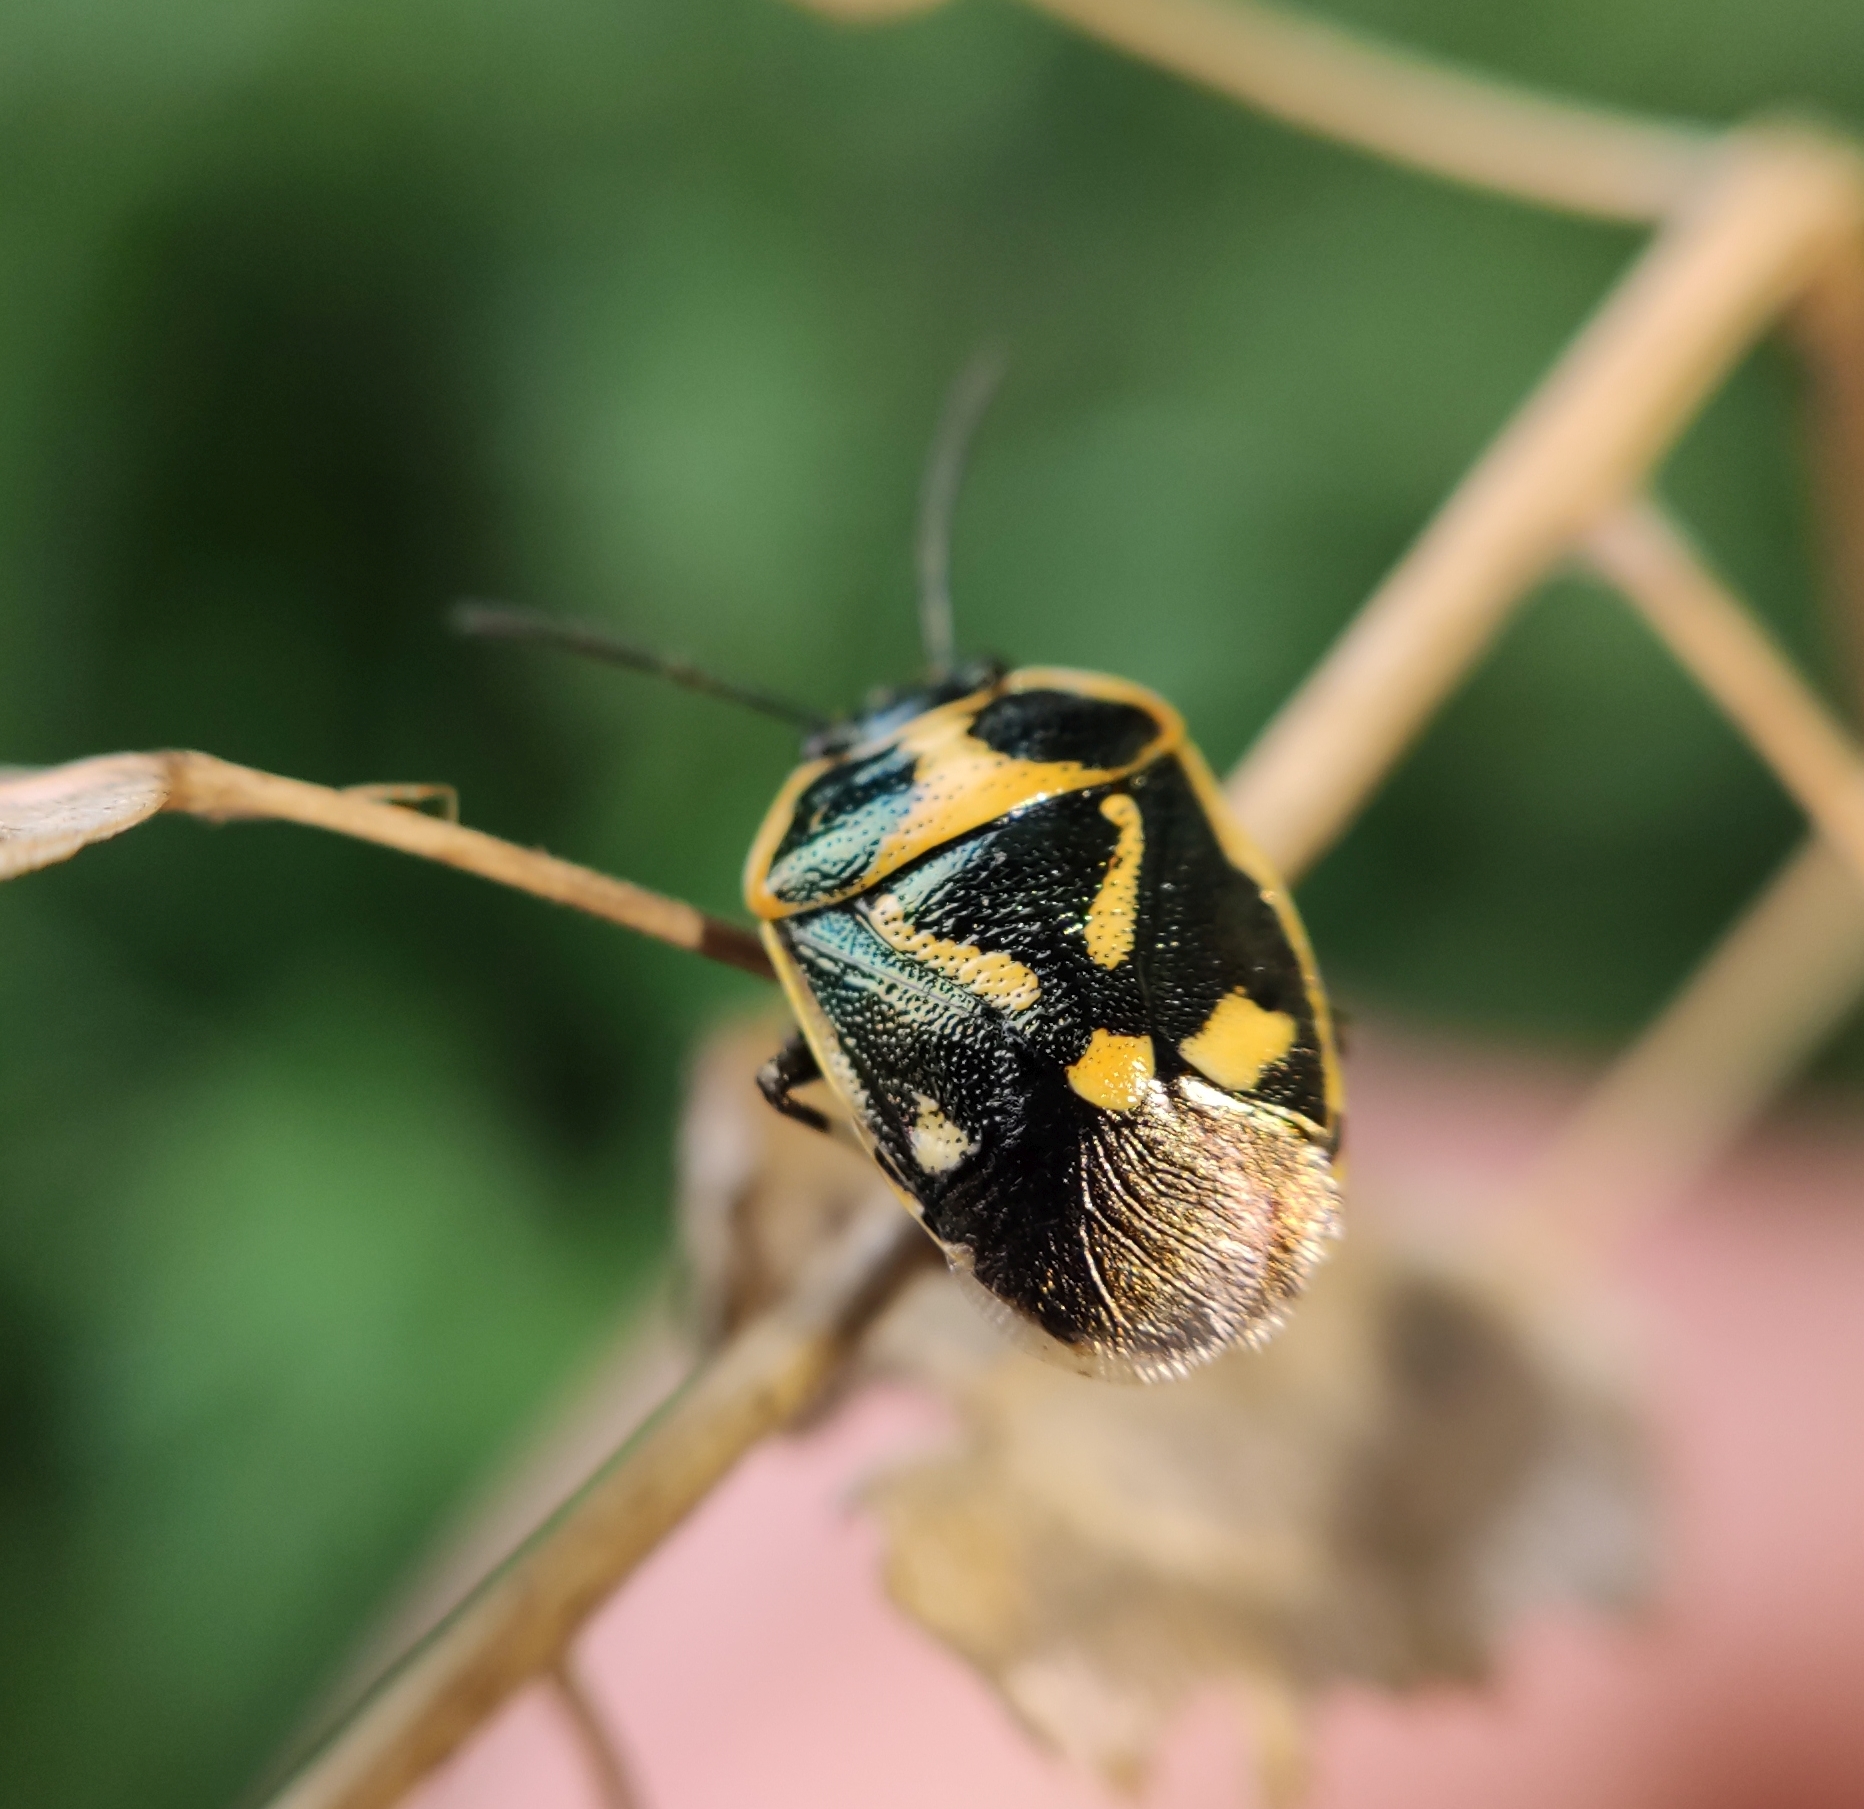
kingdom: Animalia
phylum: Arthropoda
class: Insecta
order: Hemiptera
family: Pentatomidae
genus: Eurydema
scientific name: Eurydema oleracea
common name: Cabbage bug
